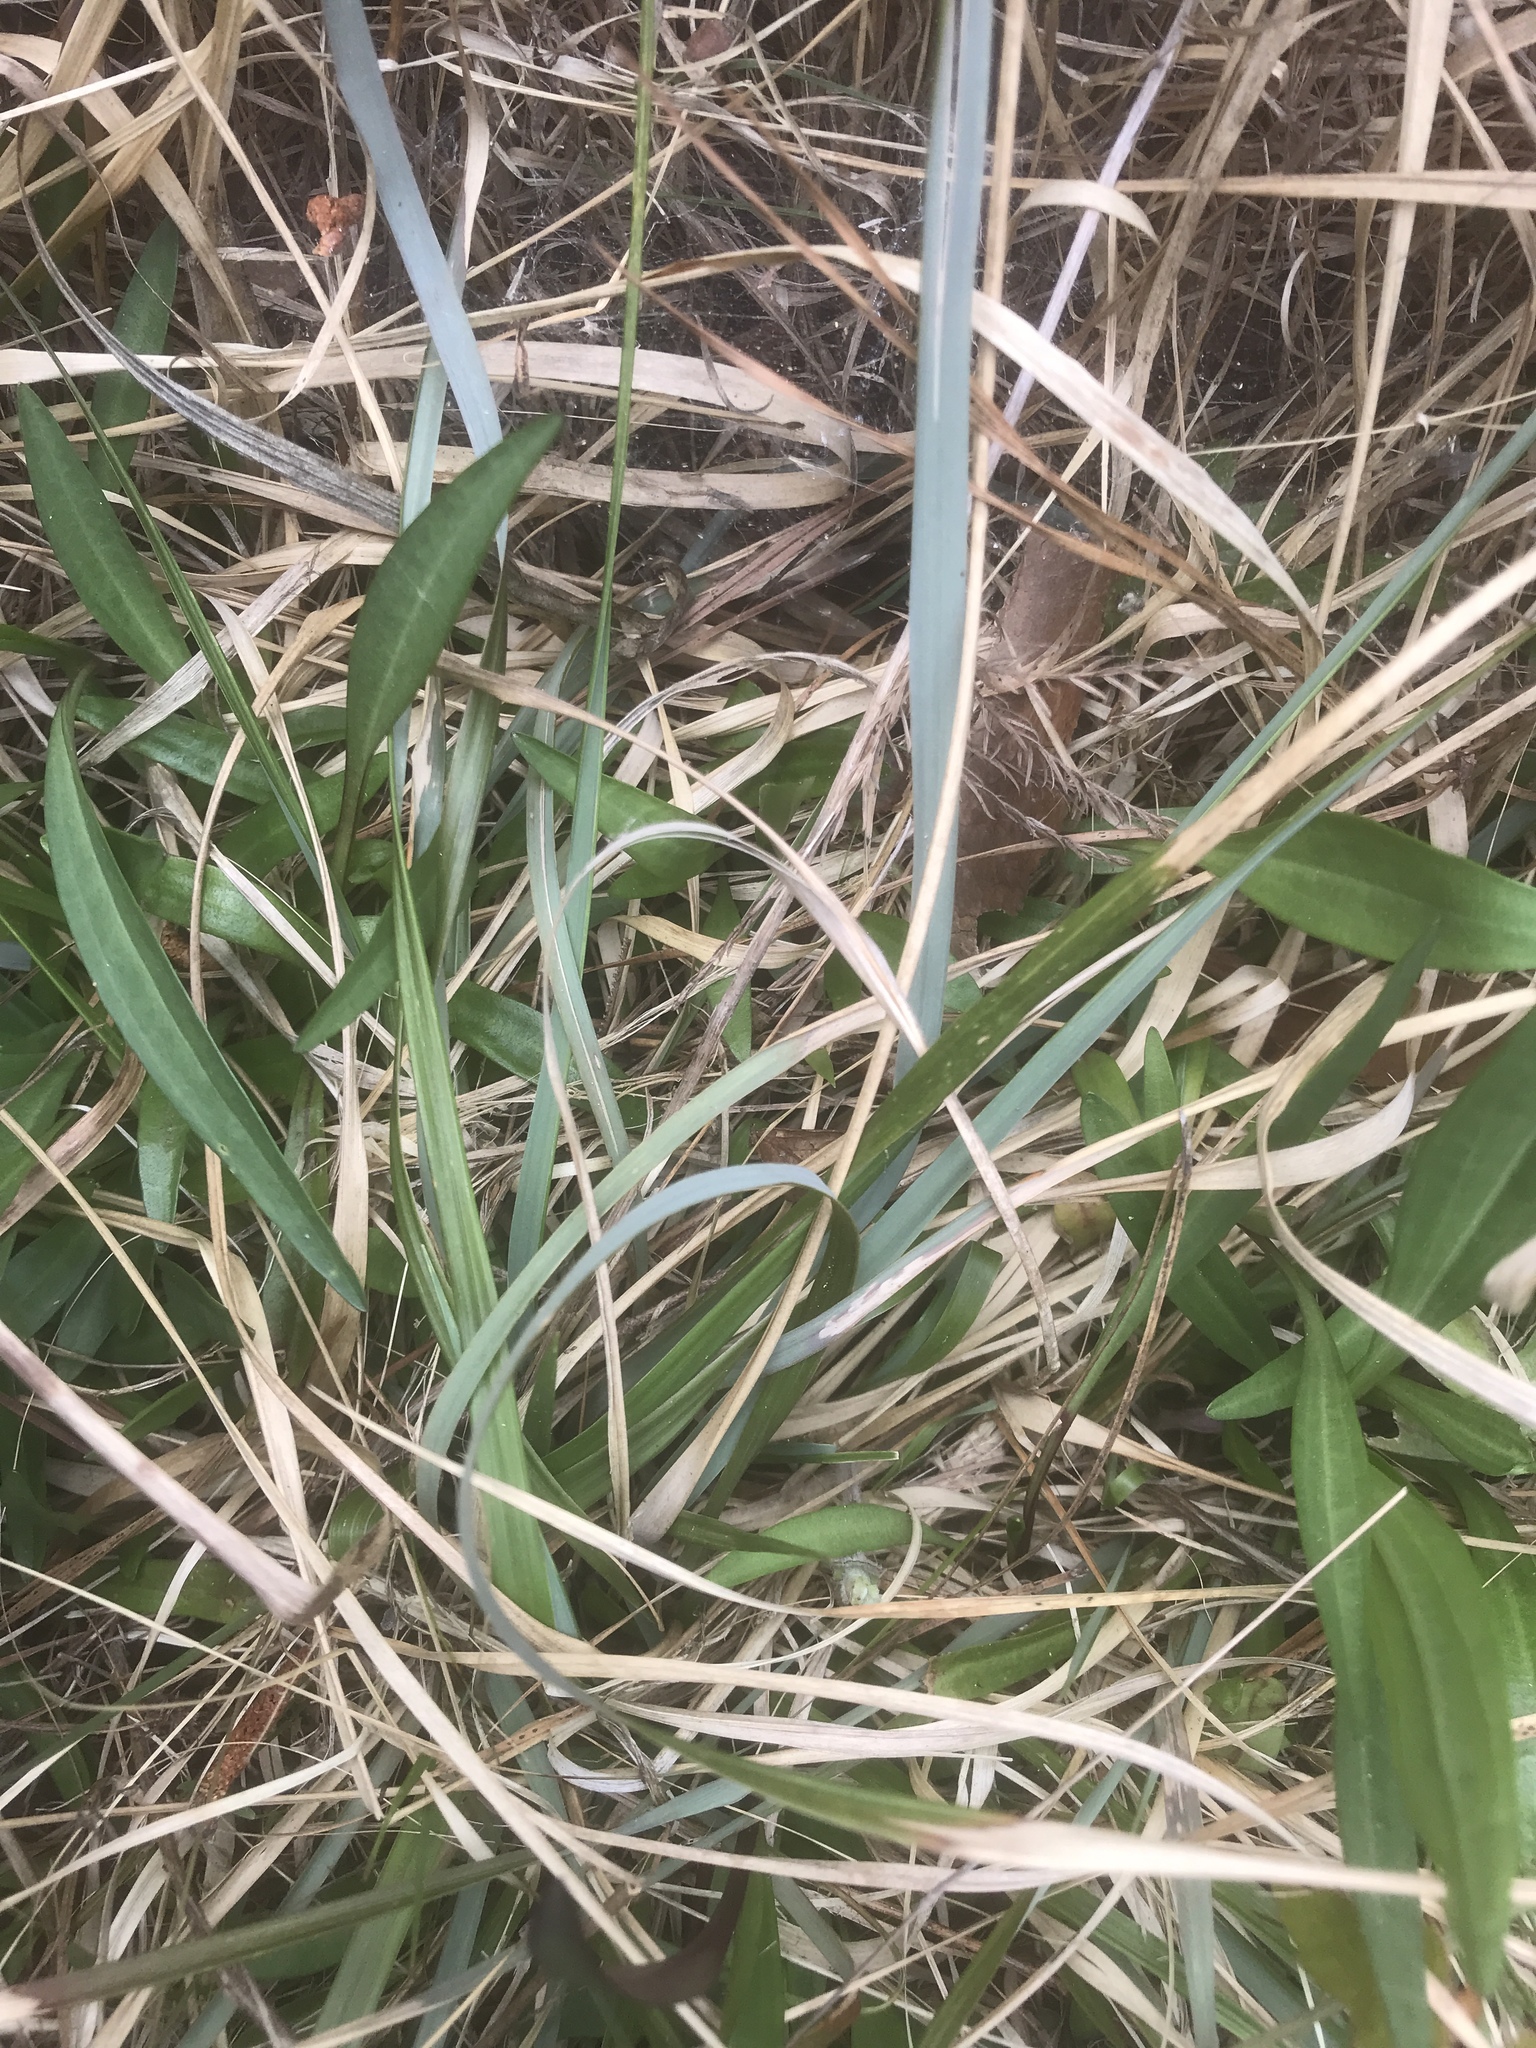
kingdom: Plantae
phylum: Tracheophyta
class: Liliopsida
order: Poales
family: Poaceae
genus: Ctenium
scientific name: Ctenium aromaticum
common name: Toothache grass
